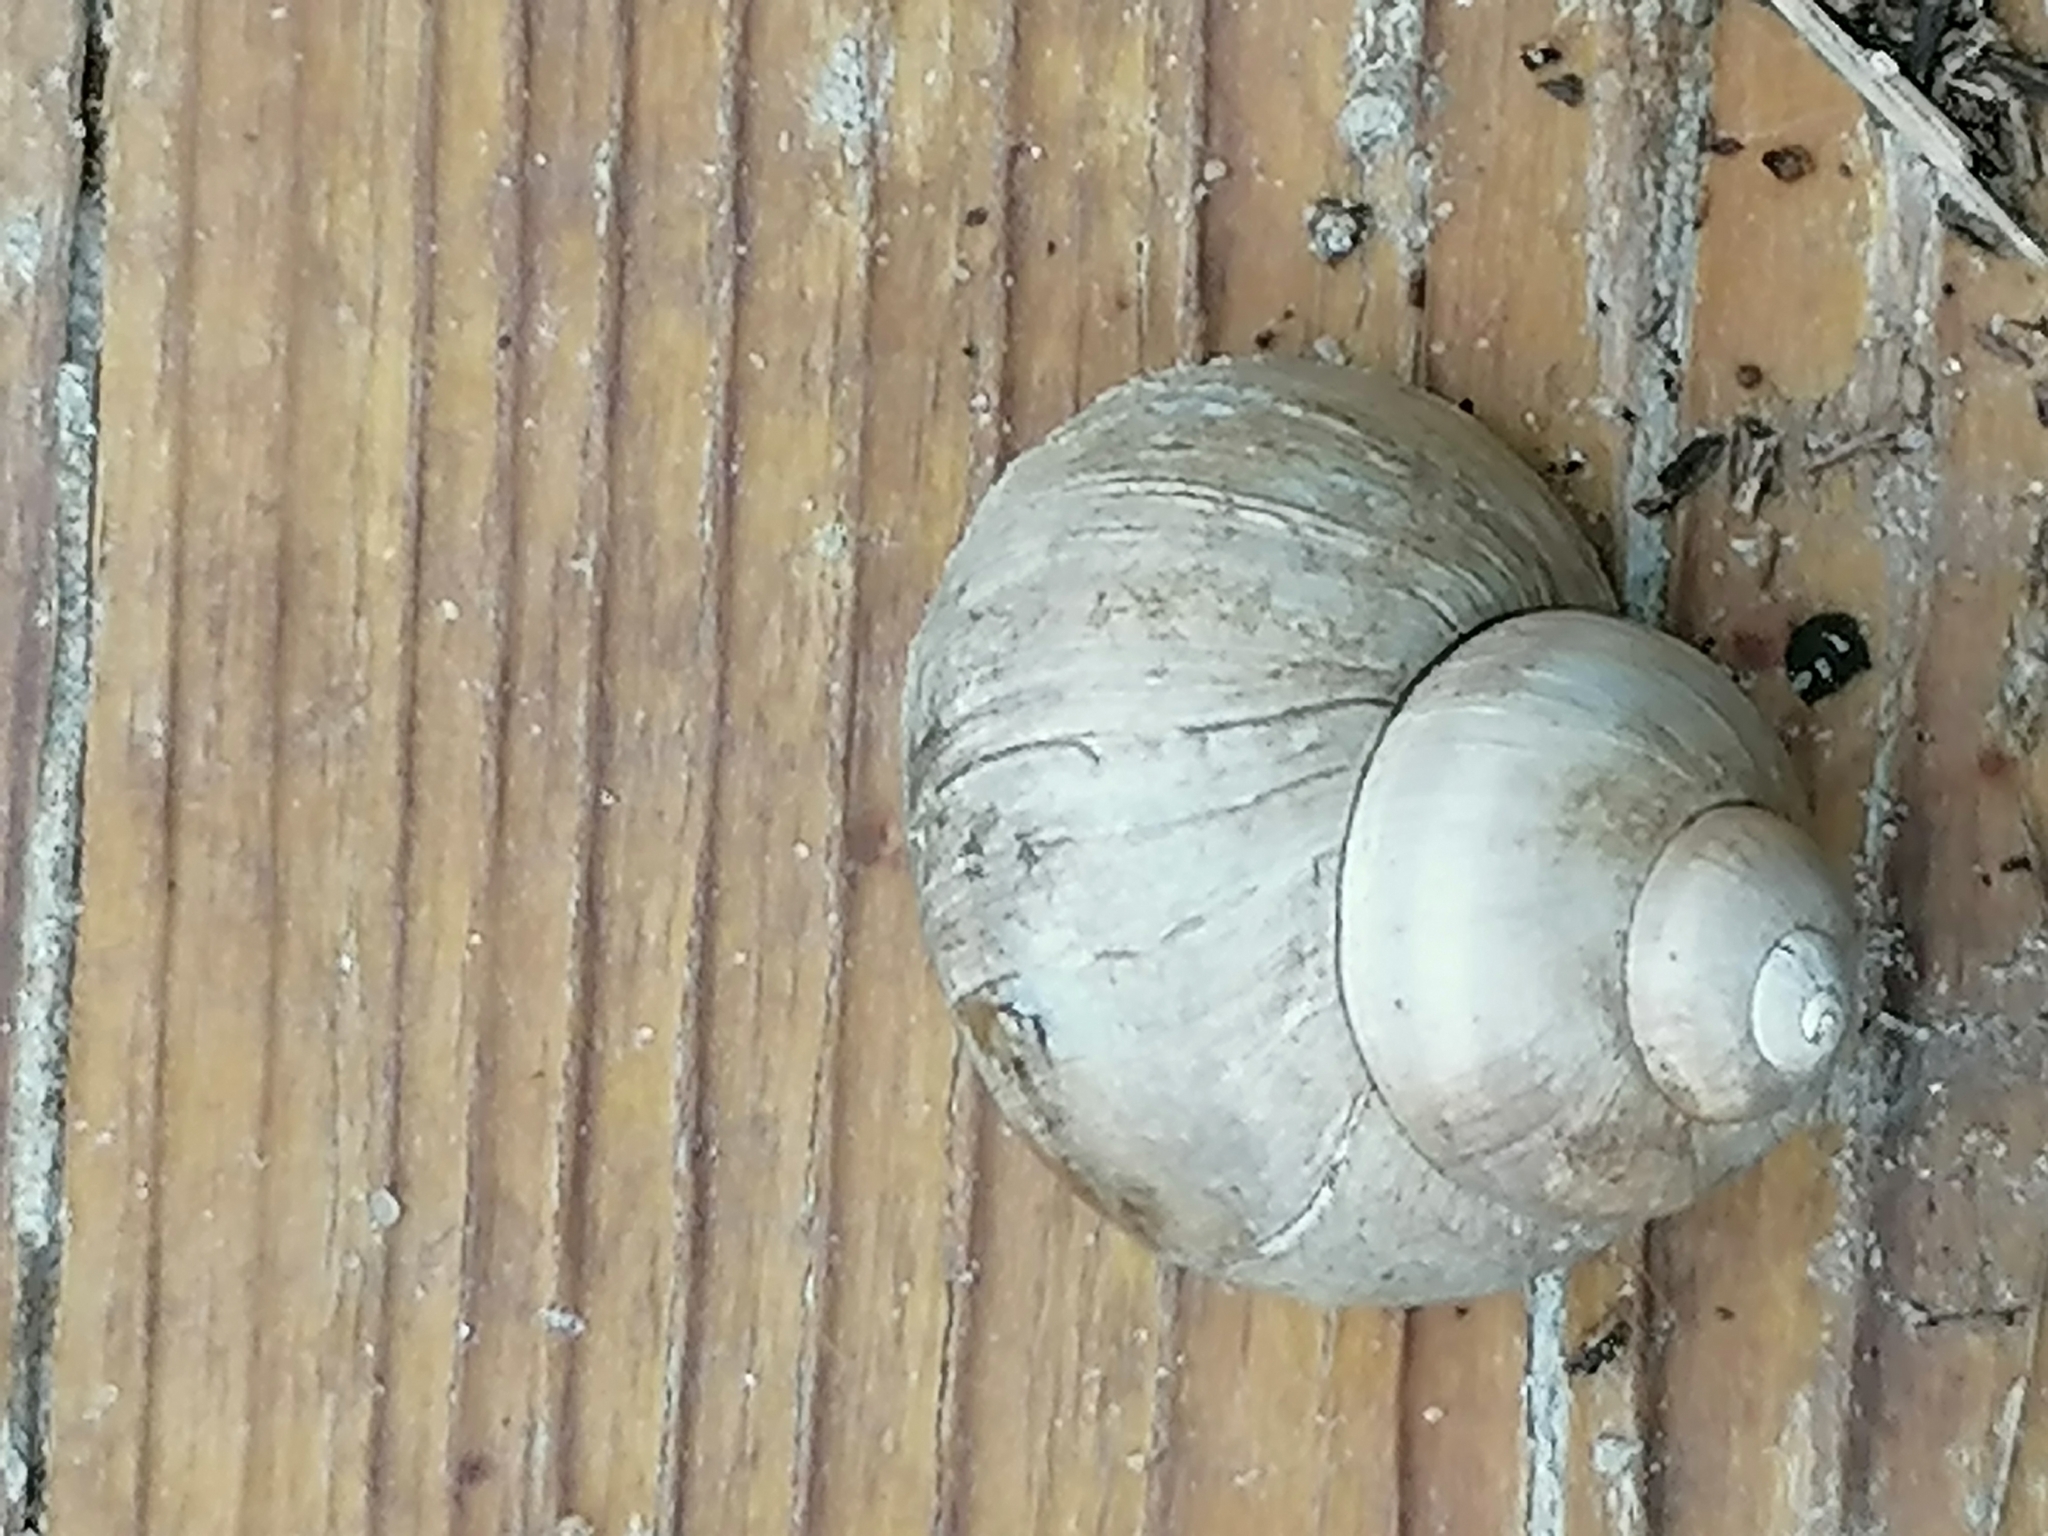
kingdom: Animalia
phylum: Mollusca
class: Gastropoda
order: Architaenioglossa
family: Viviparidae
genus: Viviparus
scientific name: Viviparus viviparus
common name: River snail
